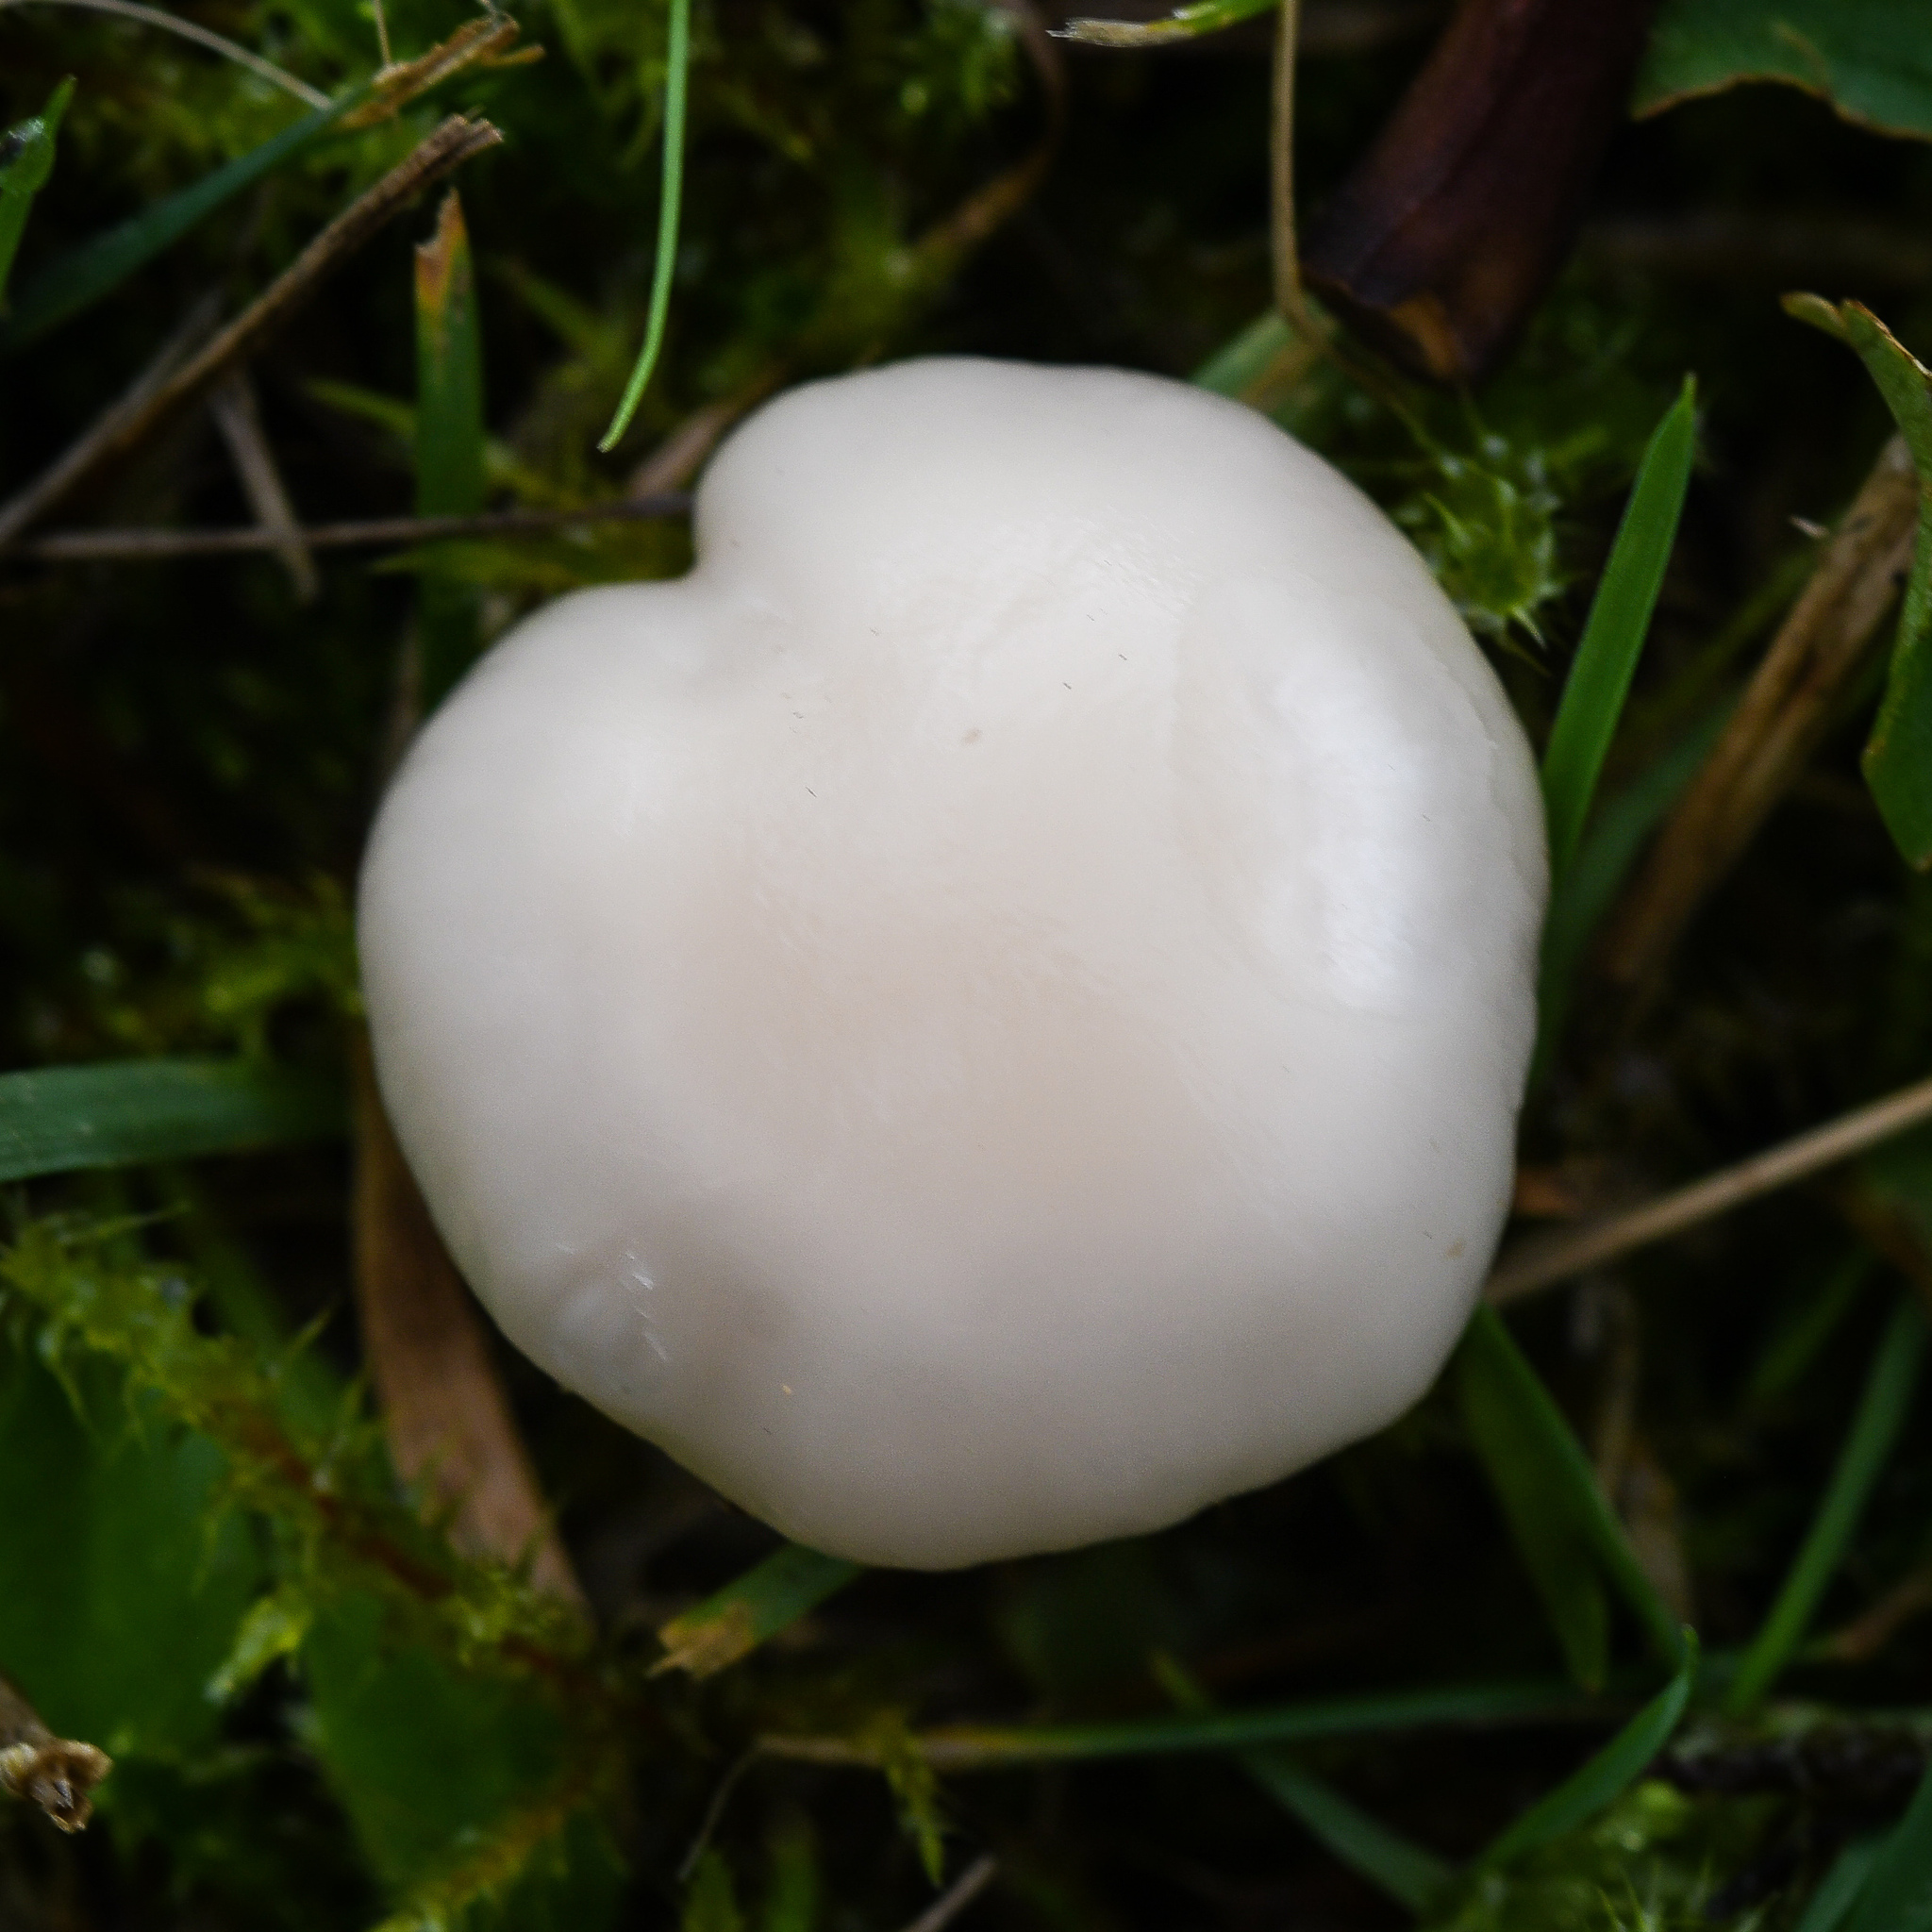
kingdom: Fungi
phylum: Basidiomycota
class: Agaricomycetes
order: Agaricales
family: Hygrophoraceae
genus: Cuphophyllus
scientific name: Cuphophyllus virgineus
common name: Snowy waxcap
